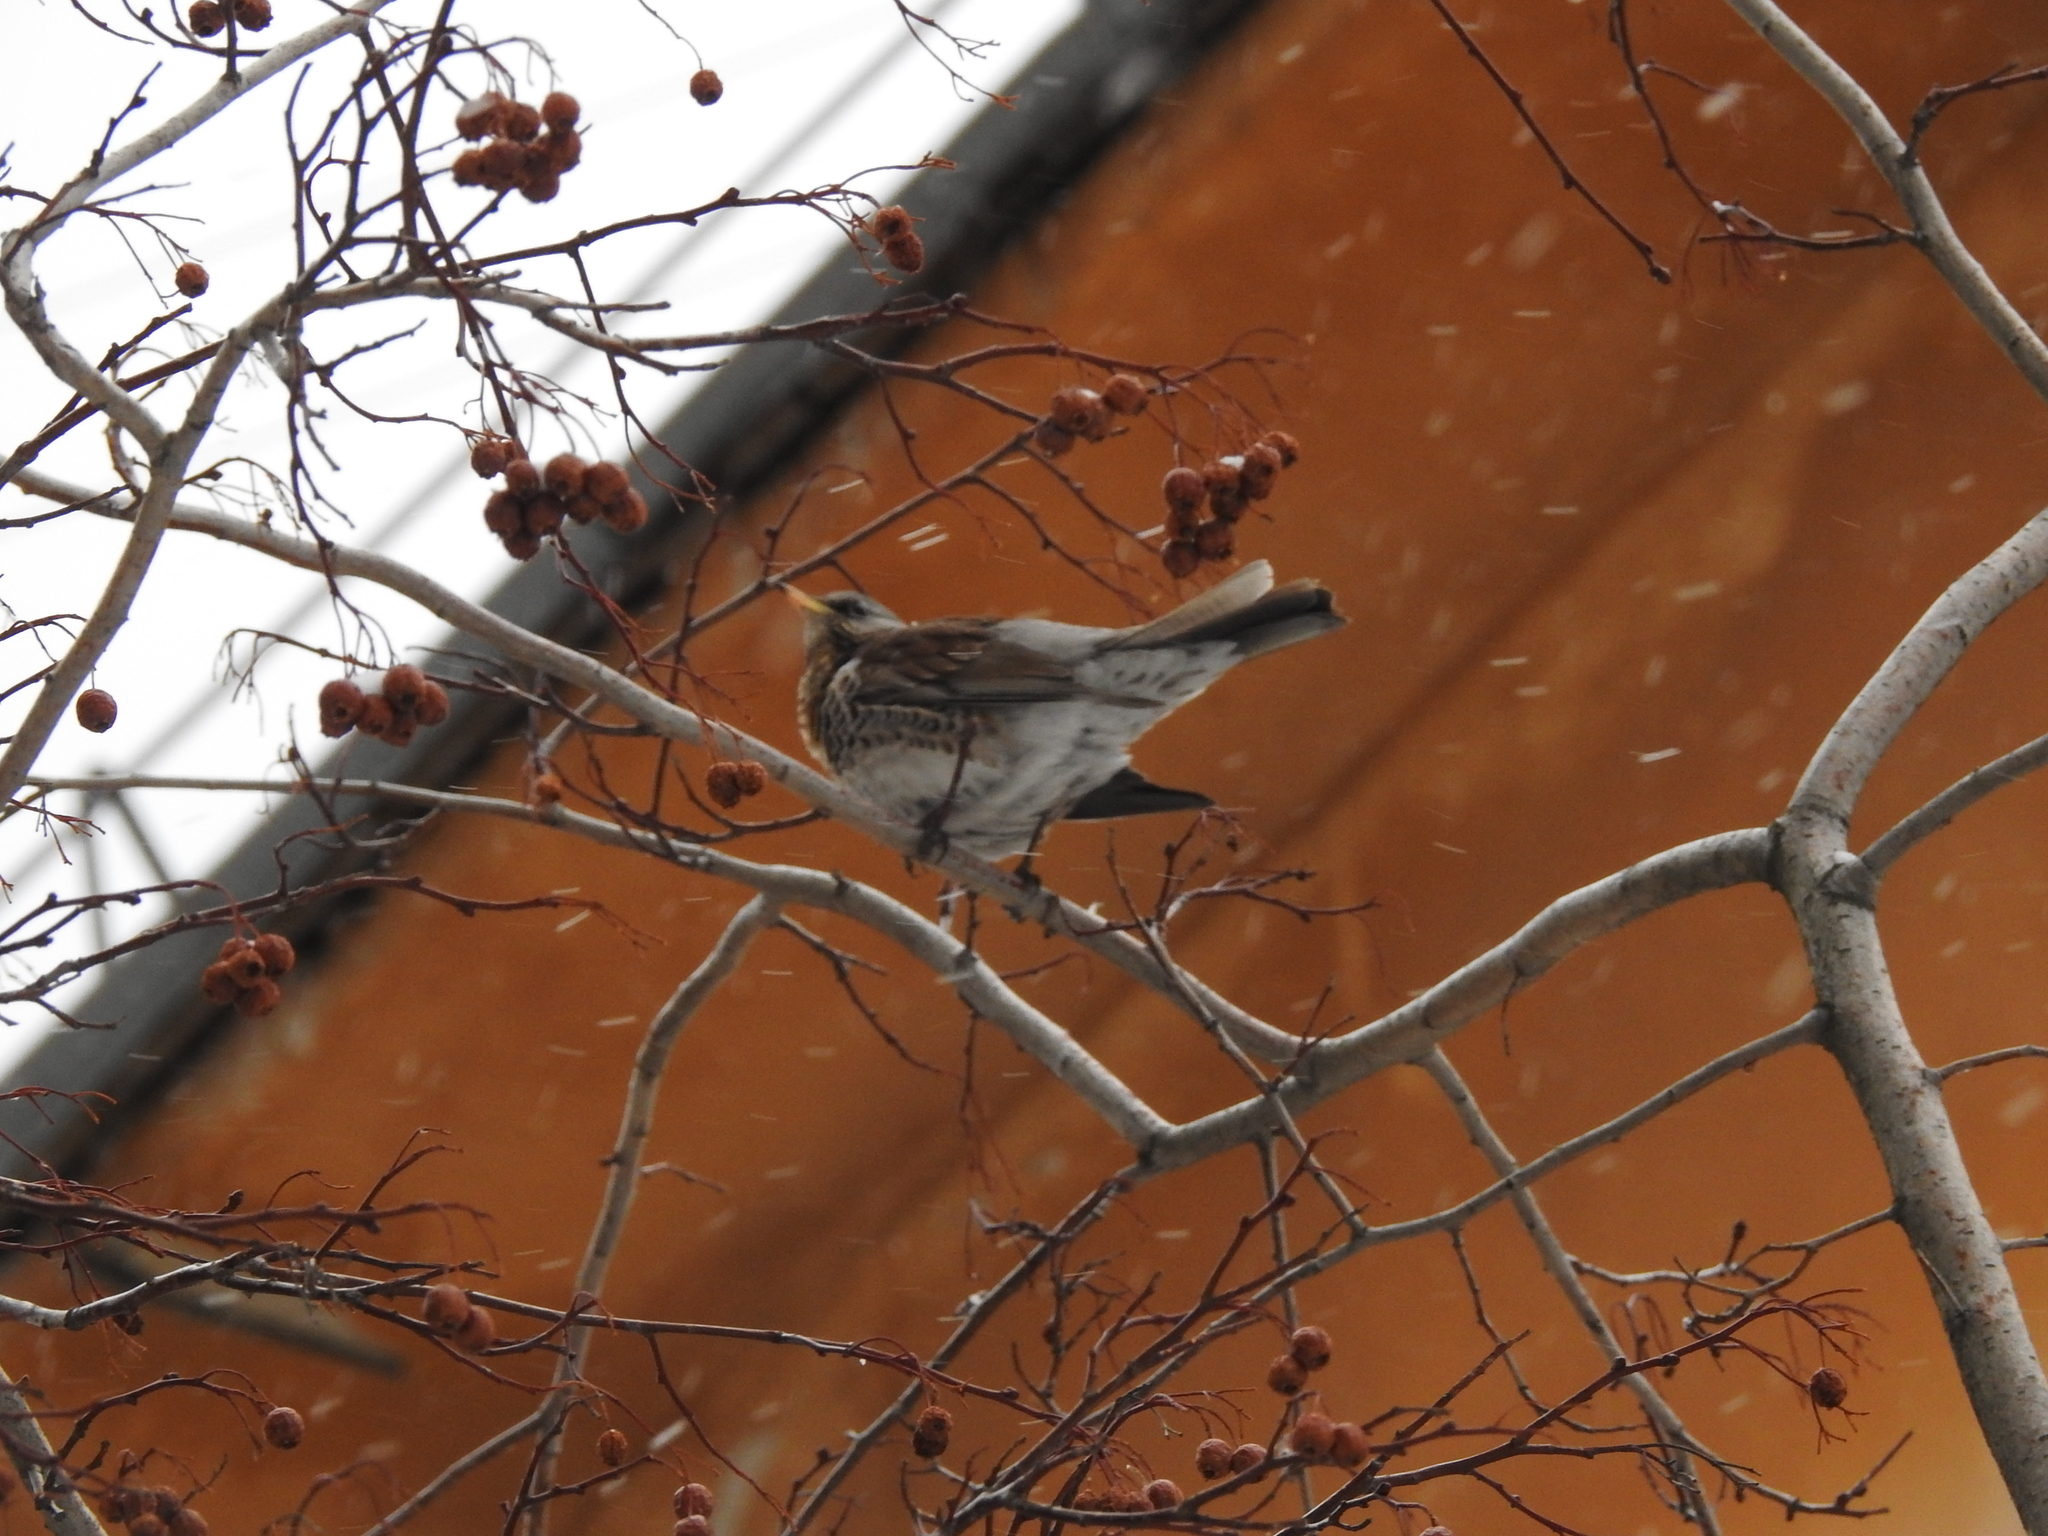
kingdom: Animalia
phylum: Chordata
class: Aves
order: Passeriformes
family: Turdidae
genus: Turdus
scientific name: Turdus pilaris
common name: Fieldfare
